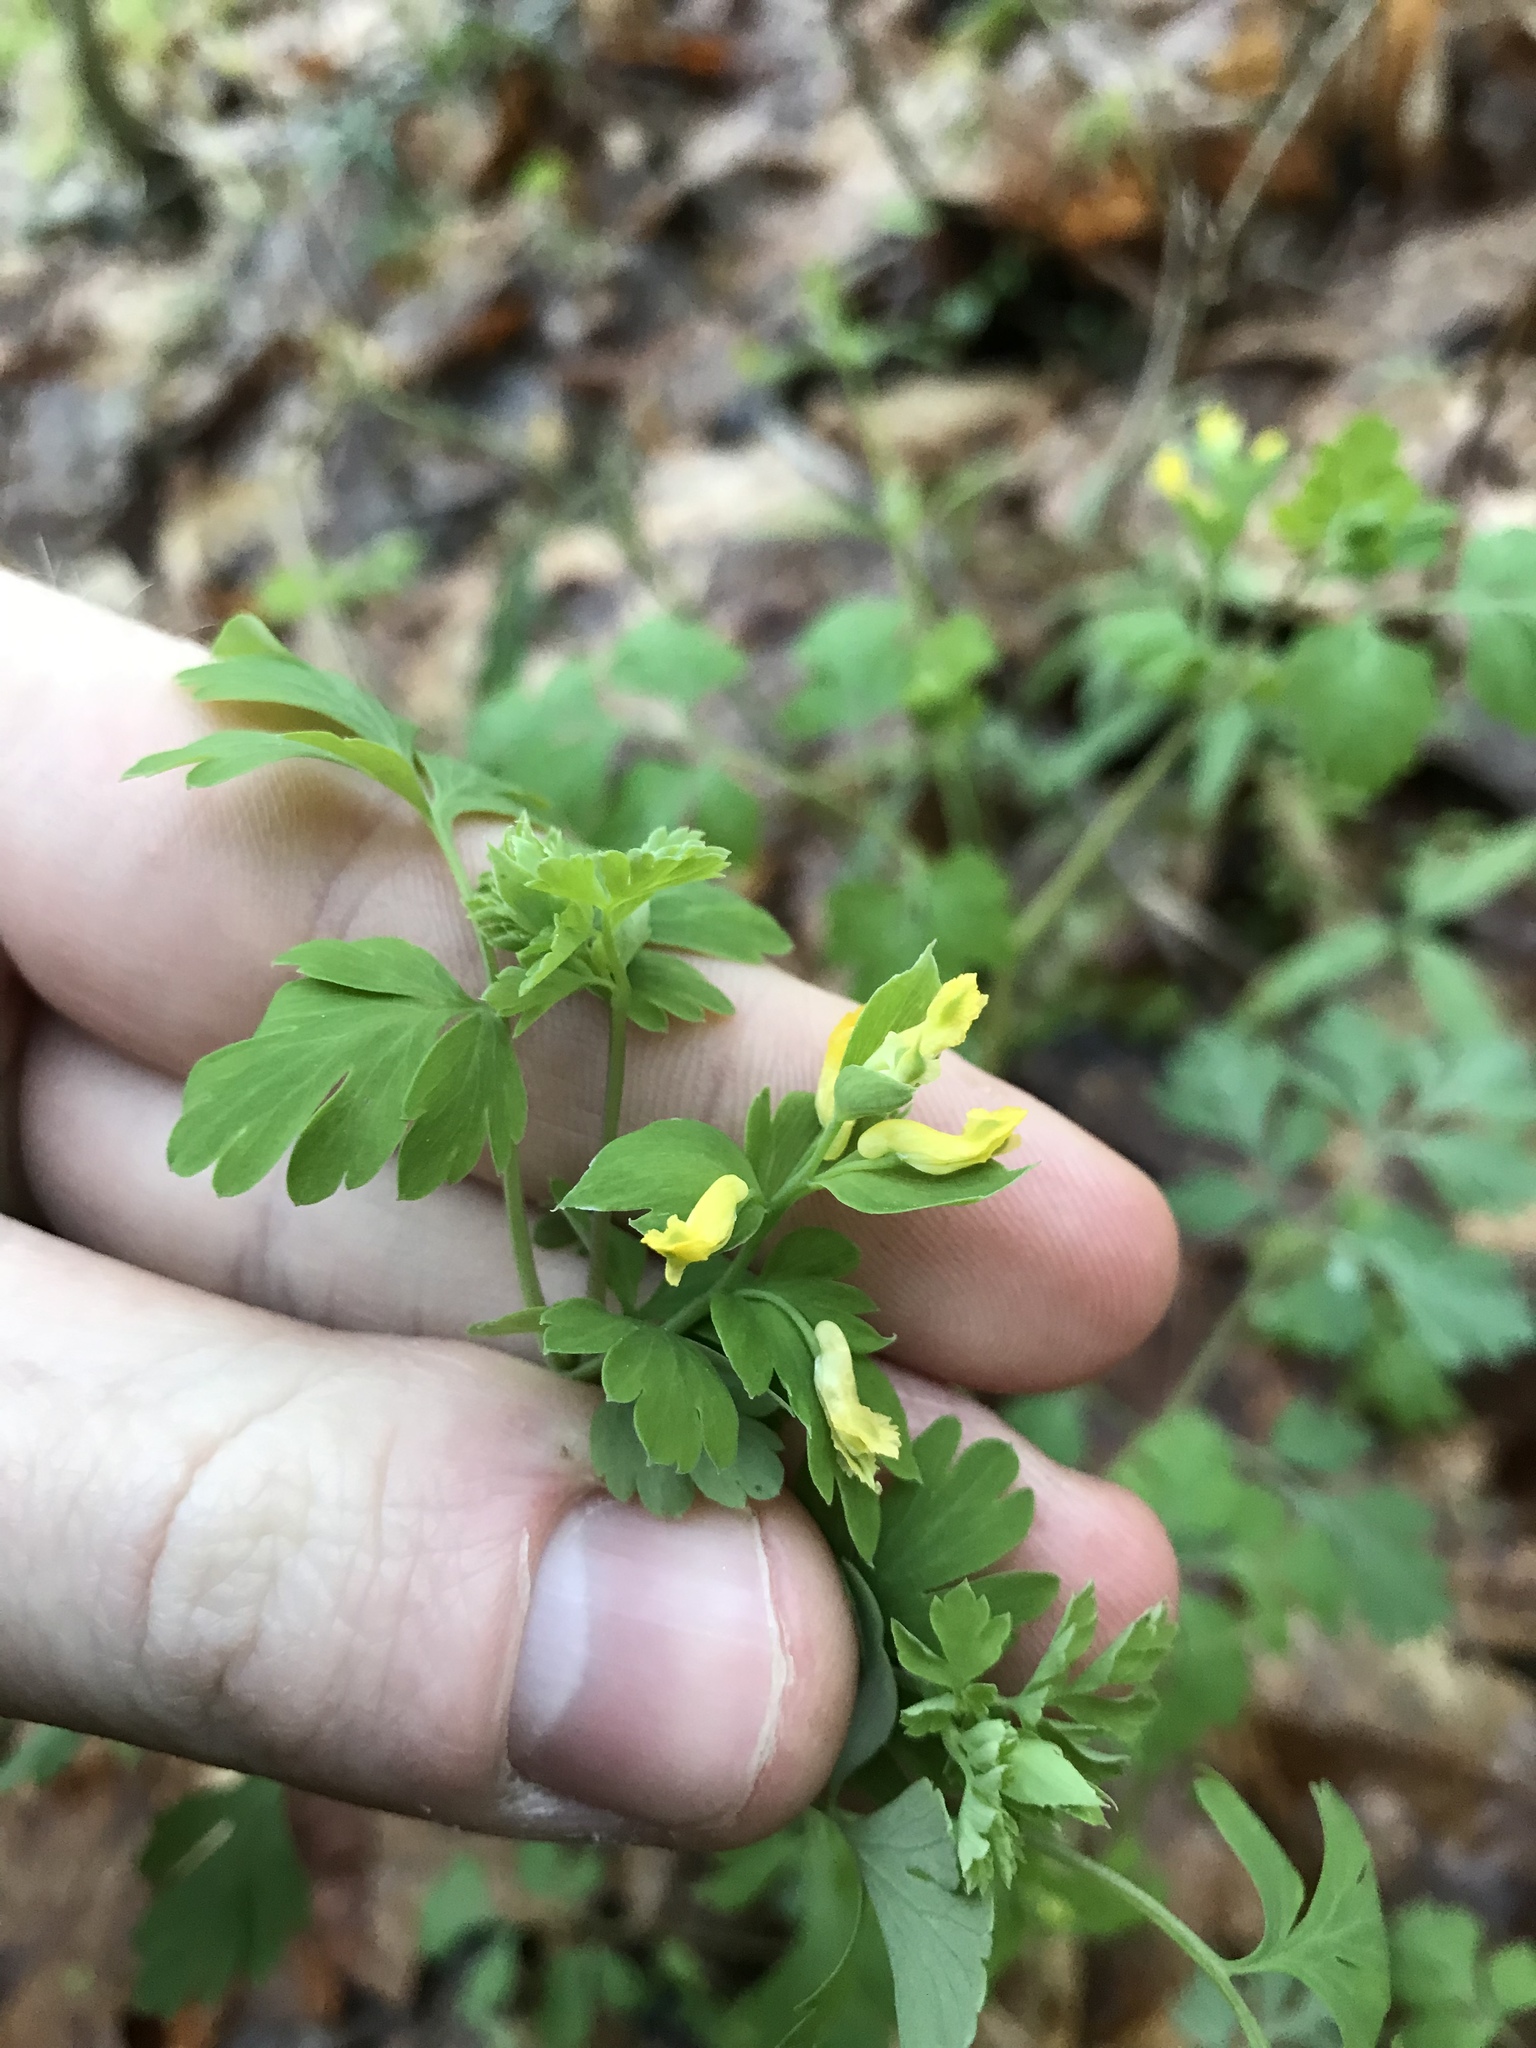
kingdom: Plantae
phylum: Tracheophyta
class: Magnoliopsida
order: Ranunculales
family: Papaveraceae
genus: Corydalis
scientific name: Corydalis flavula
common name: Yellow corydalis
